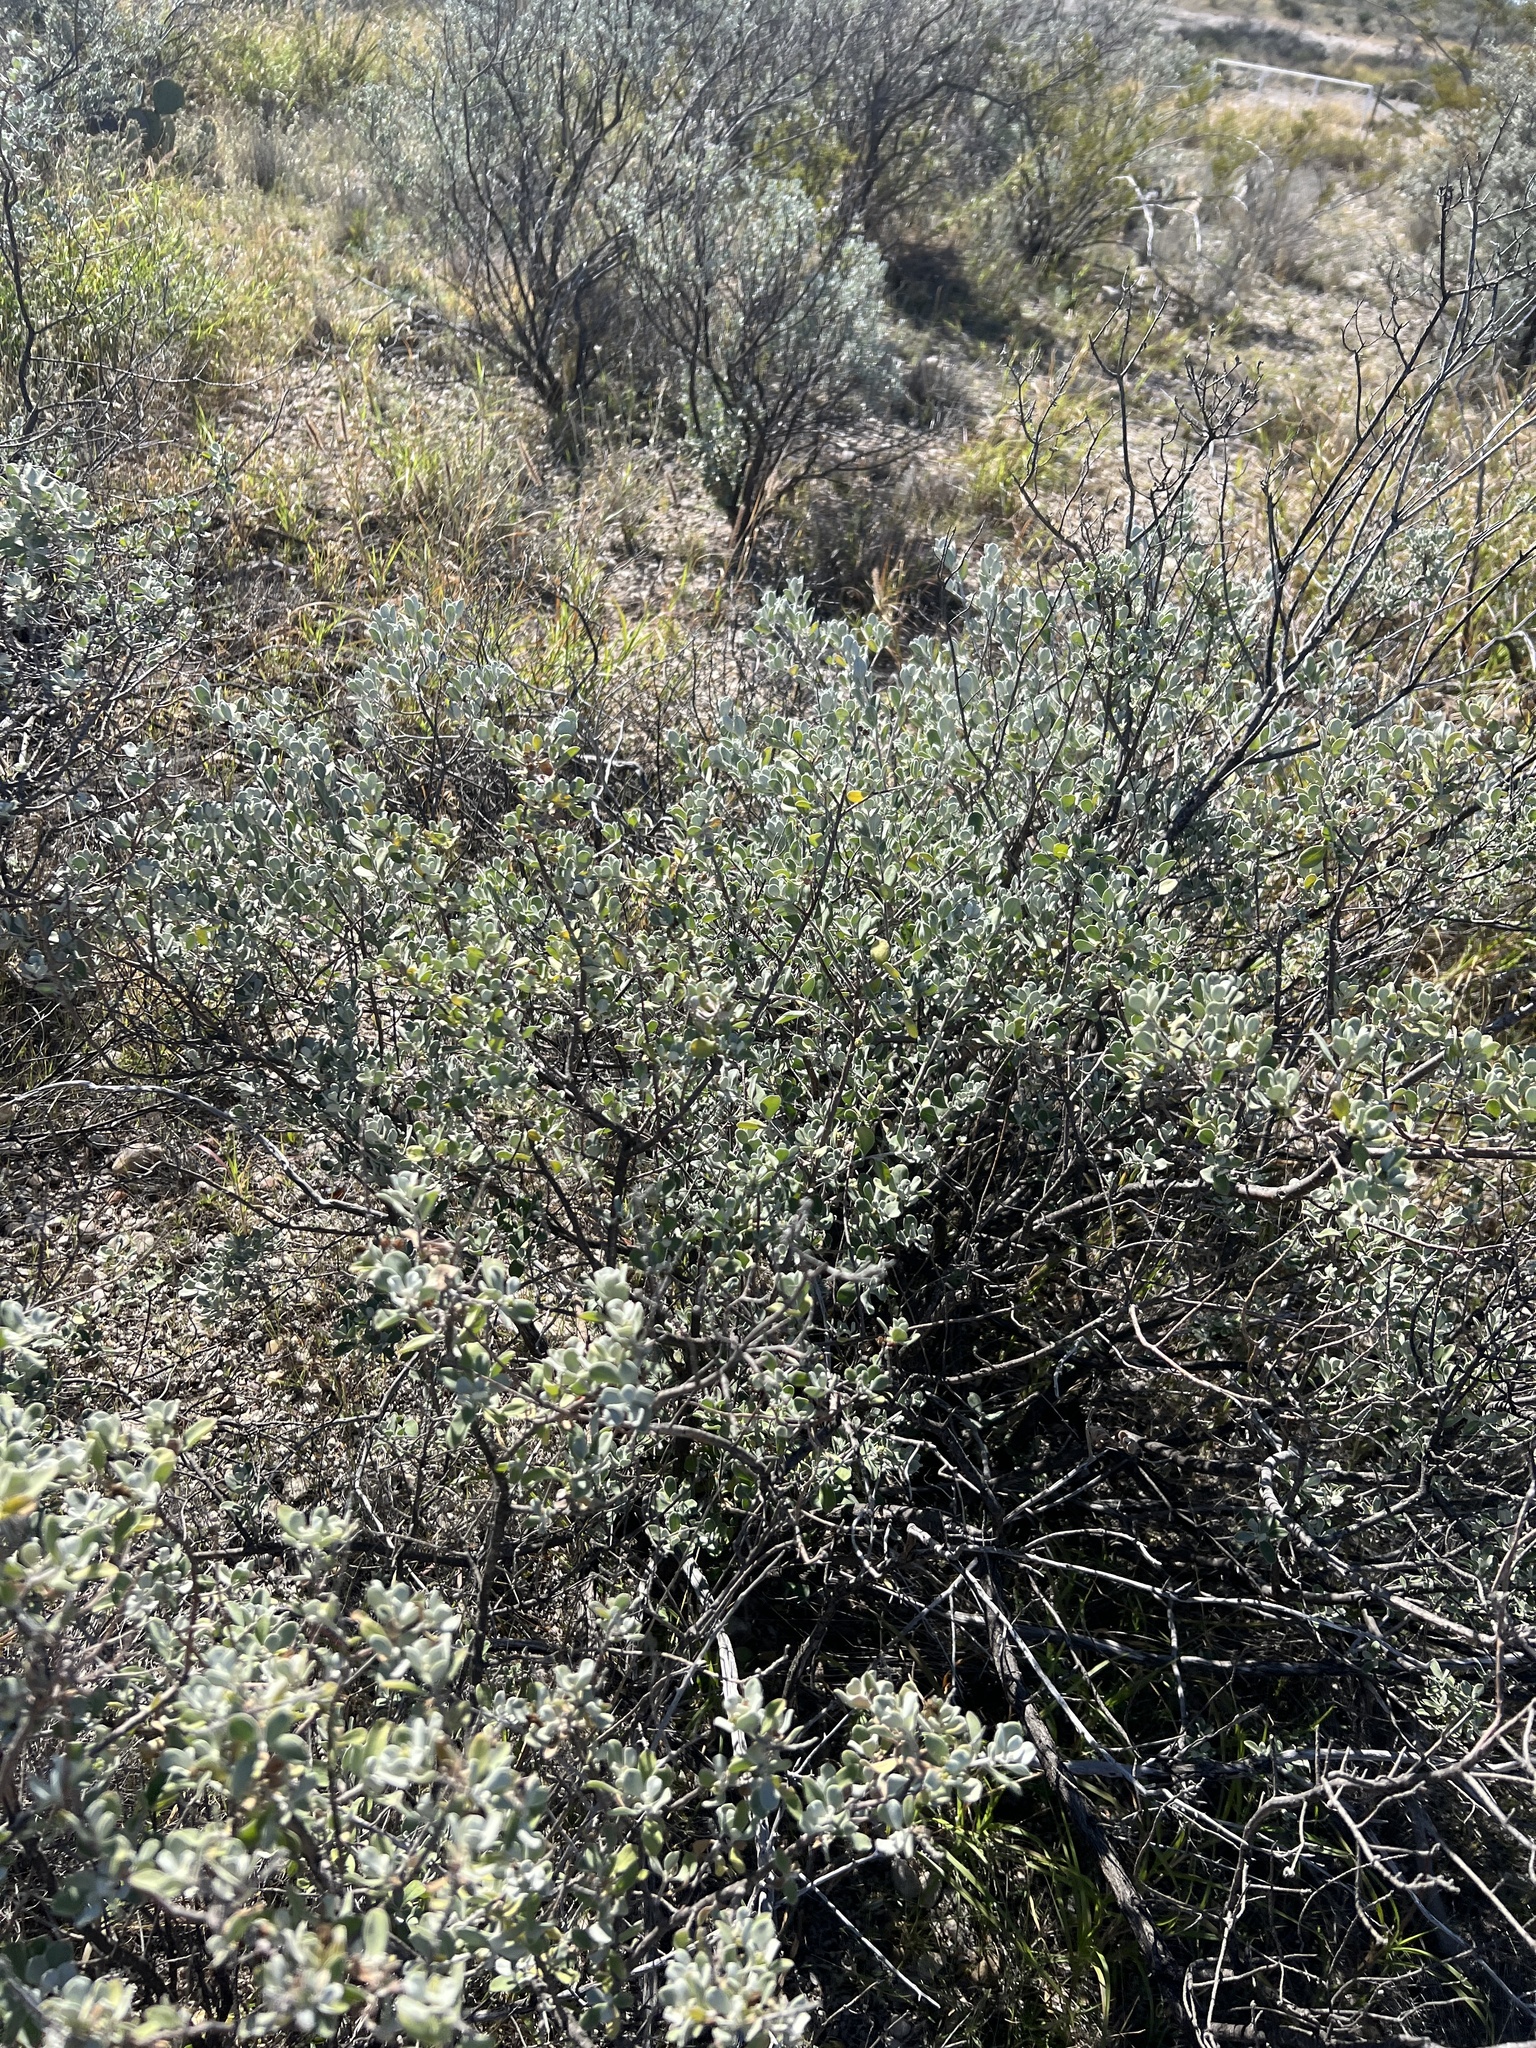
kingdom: Plantae
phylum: Tracheophyta
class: Magnoliopsida
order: Lamiales
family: Scrophulariaceae
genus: Leucophyllum
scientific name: Leucophyllum frutescens
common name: Texas silverleaf
